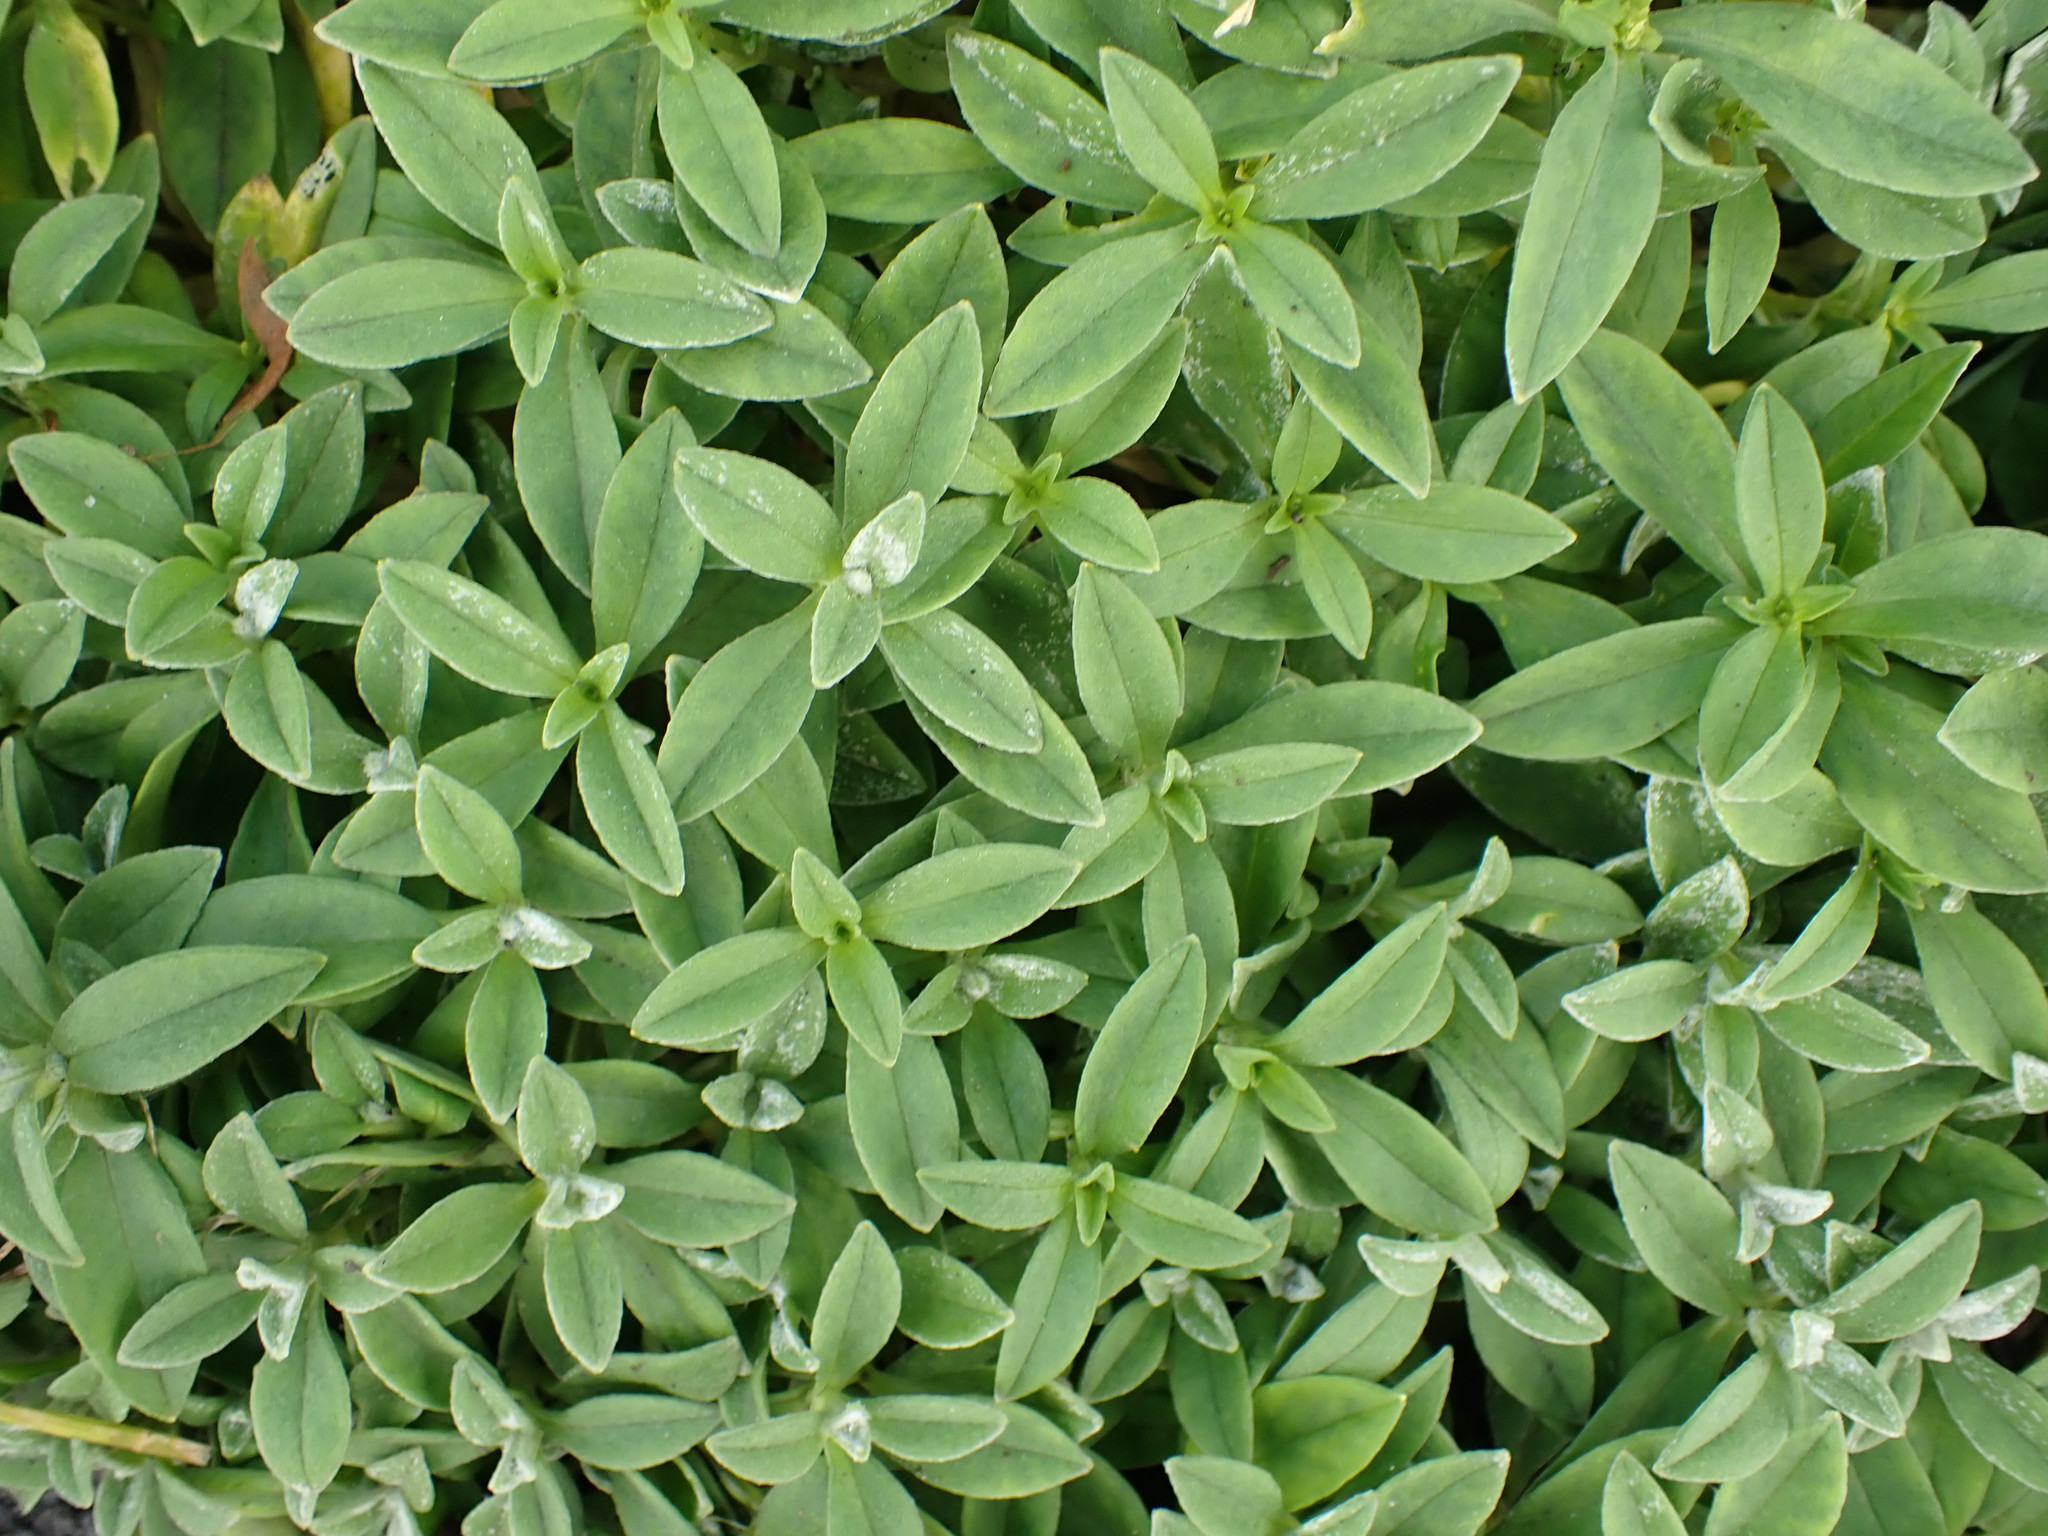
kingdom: Plantae
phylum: Tracheophyta
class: Magnoliopsida
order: Caryophyllales
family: Caryophyllaceae
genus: Silene
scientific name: Silene uniflora
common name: Sea campion
